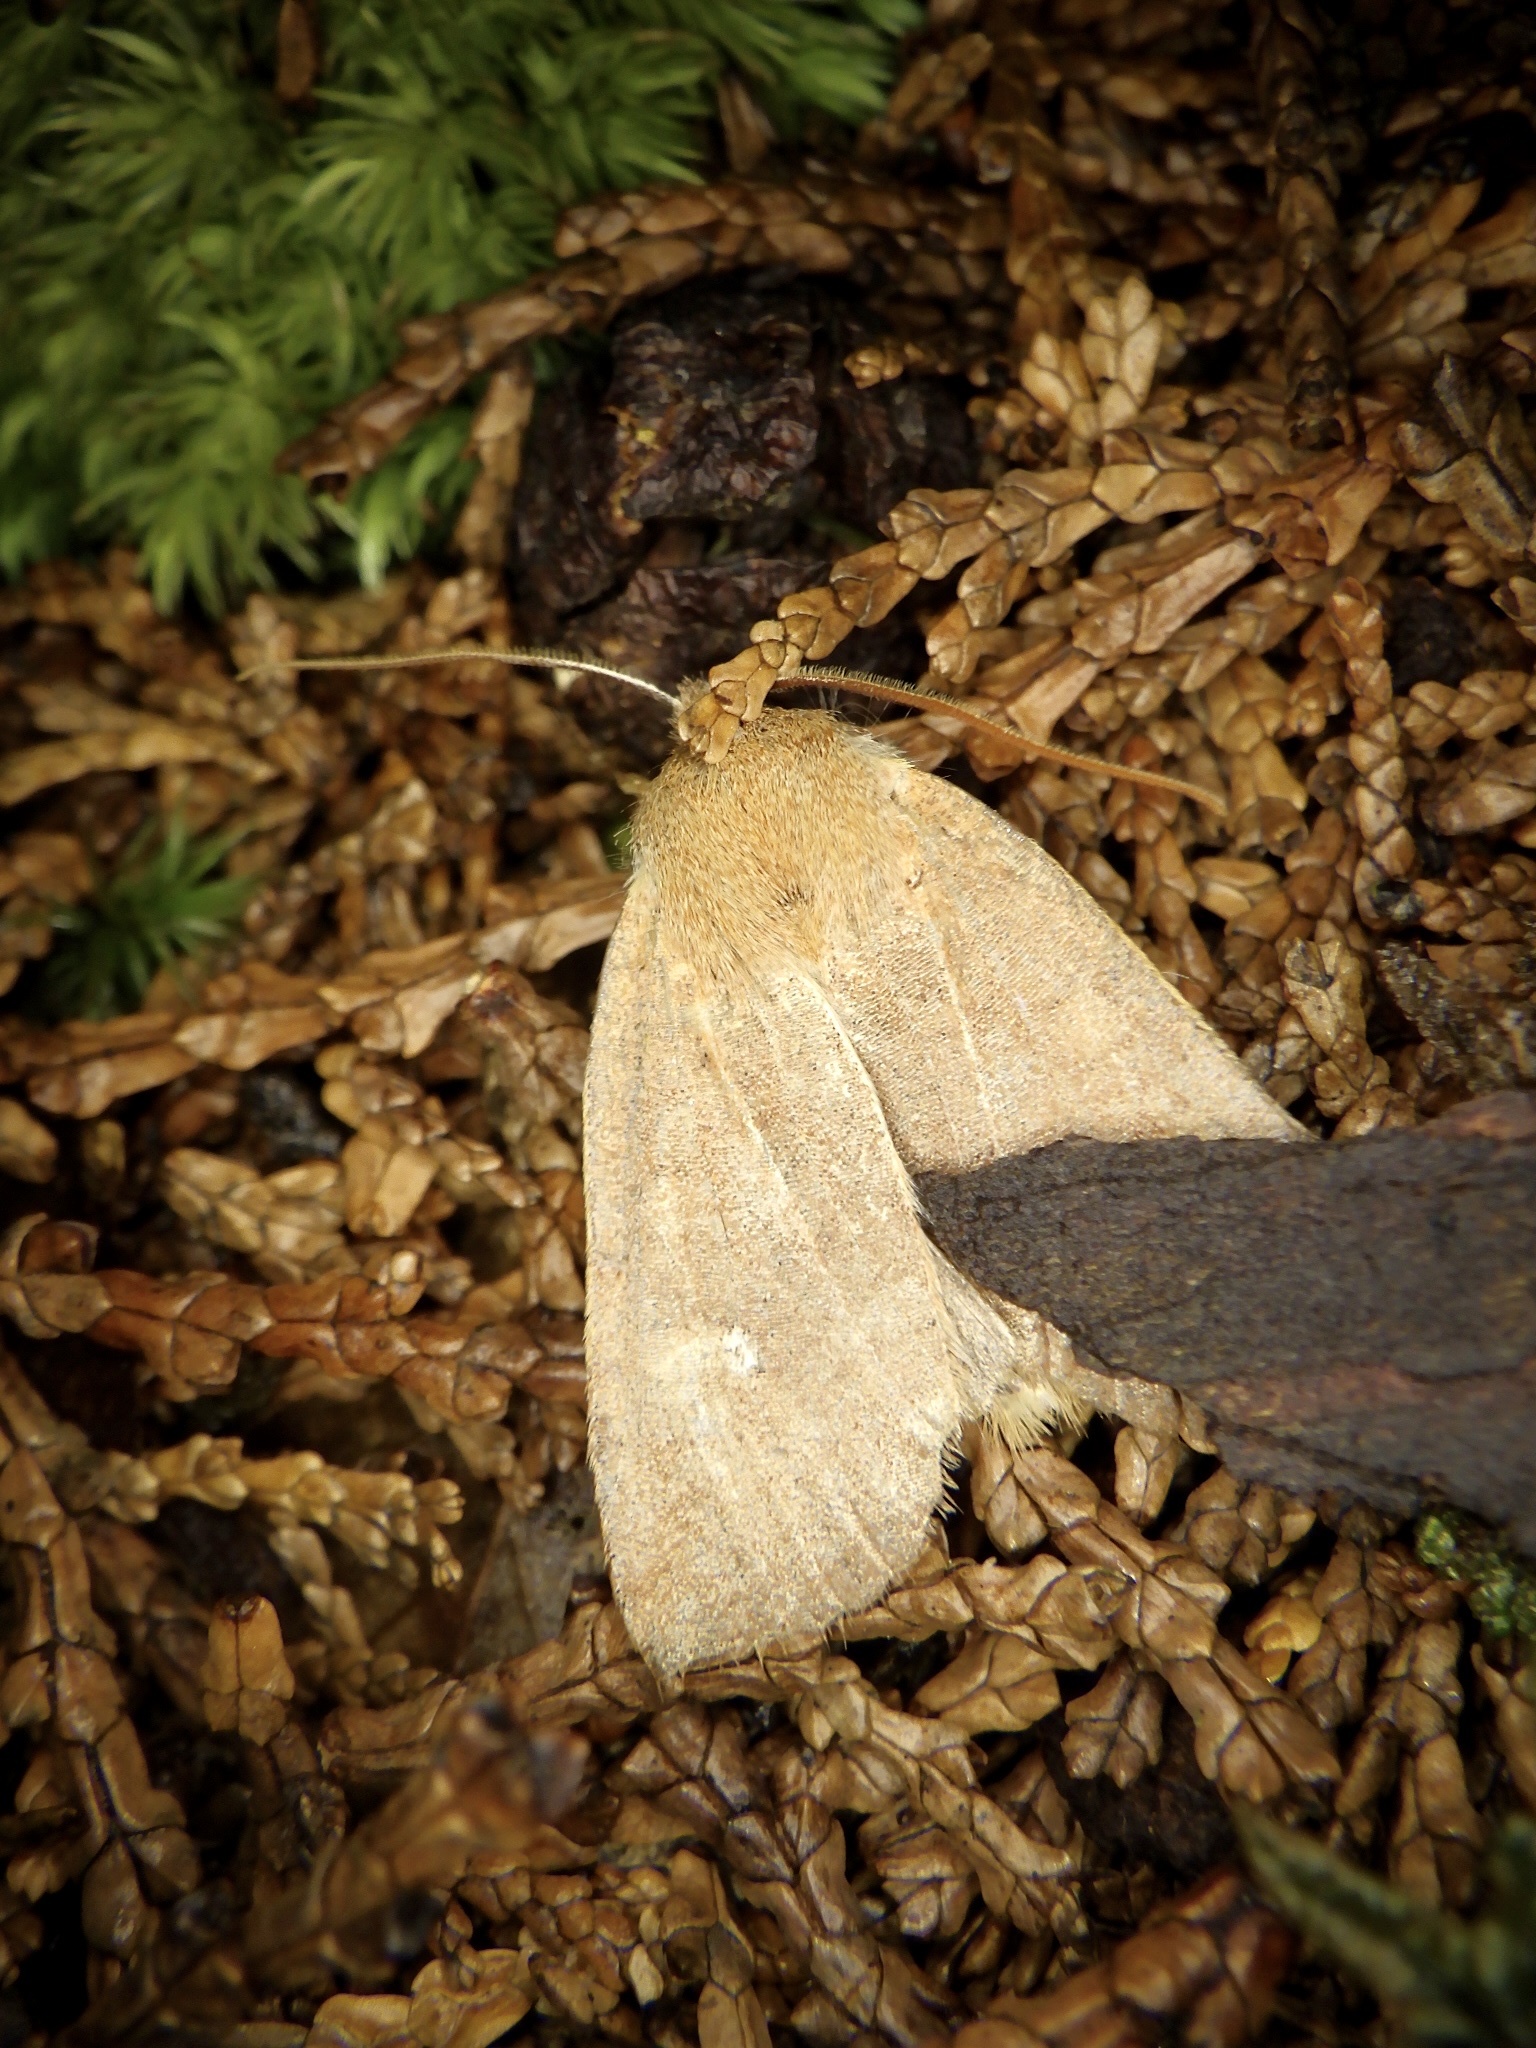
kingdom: Animalia
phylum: Arthropoda
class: Insecta
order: Lepidoptera
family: Noctuidae
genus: Conistra
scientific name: Conistra albipuncta
